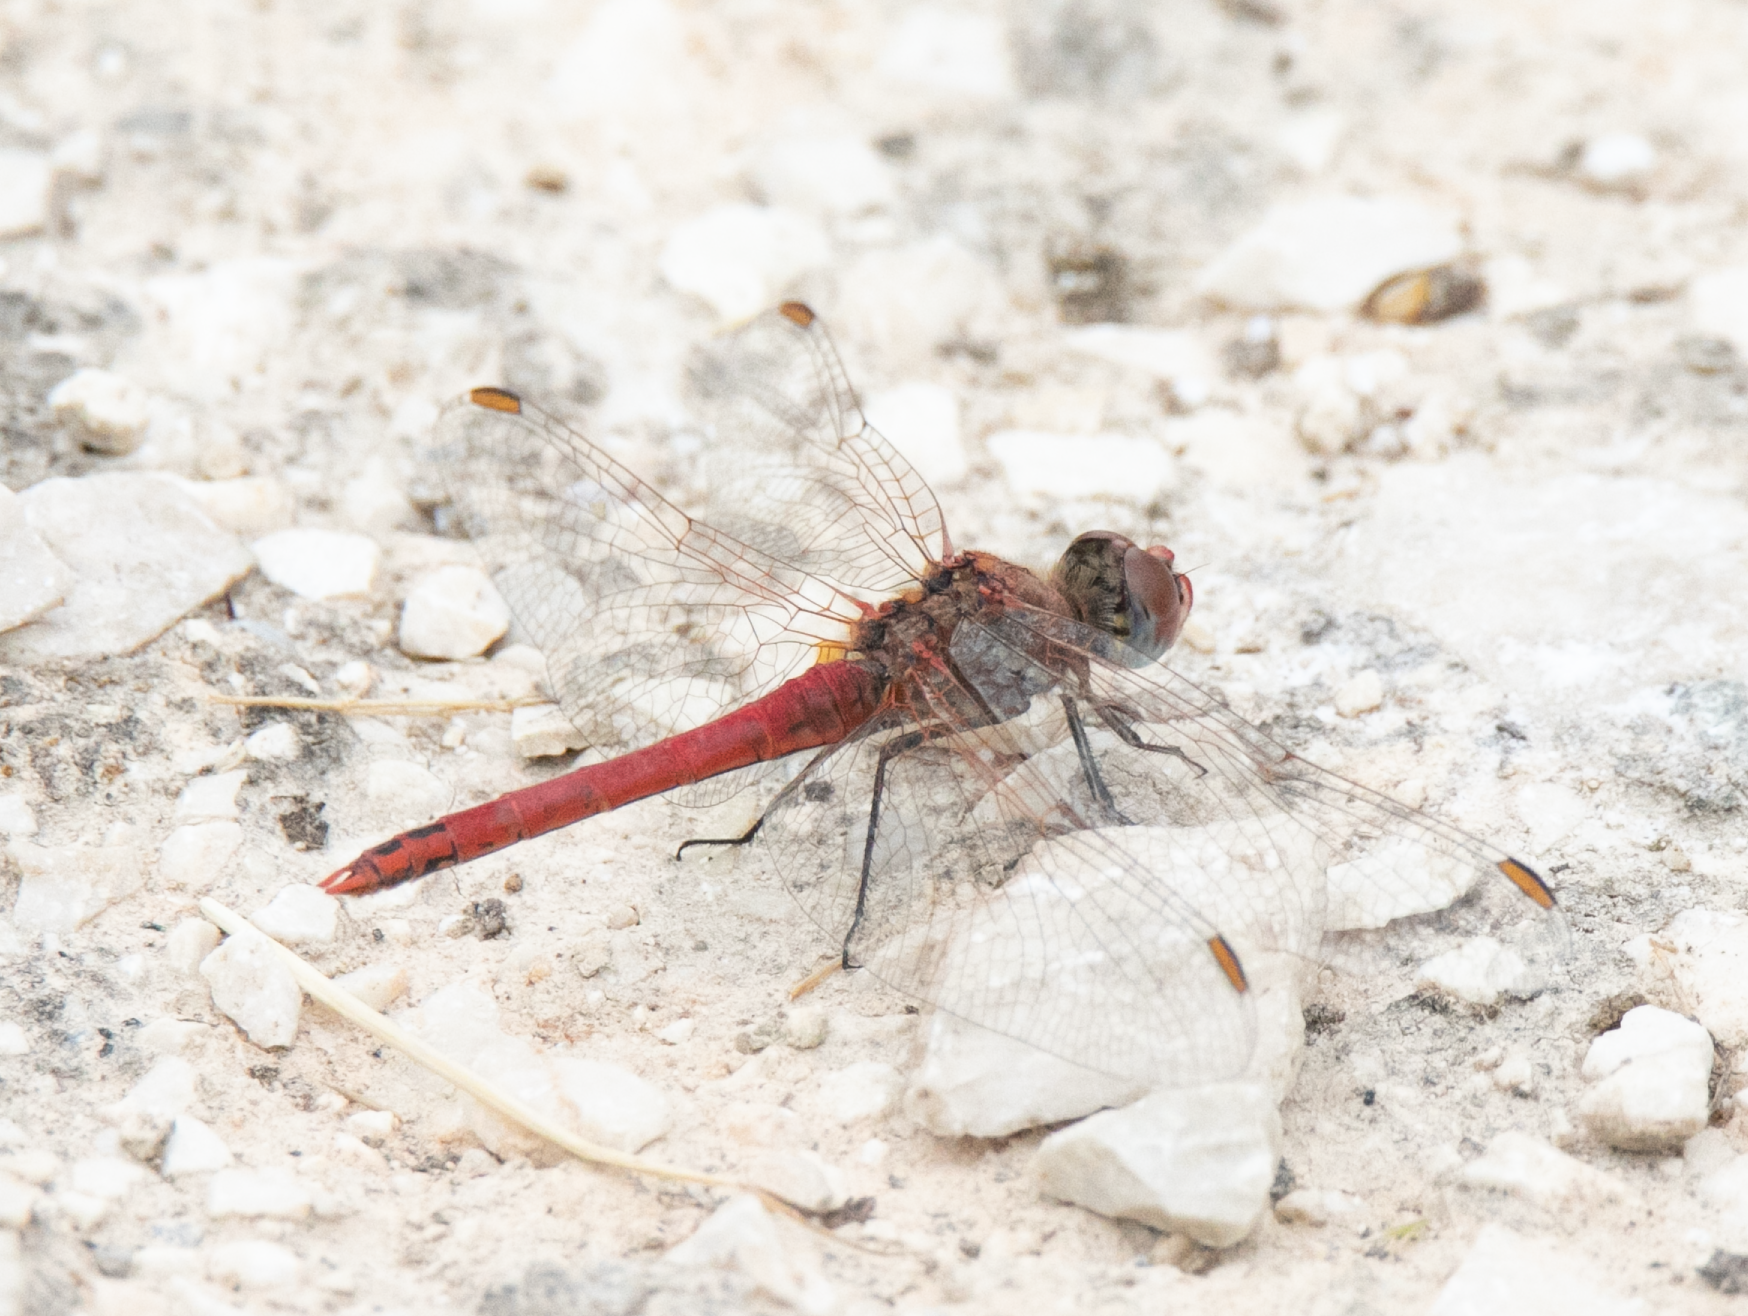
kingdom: Animalia
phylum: Arthropoda
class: Insecta
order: Odonata
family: Libellulidae
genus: Sympetrum
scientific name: Sympetrum fonscolombii
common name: Red-veined darter
